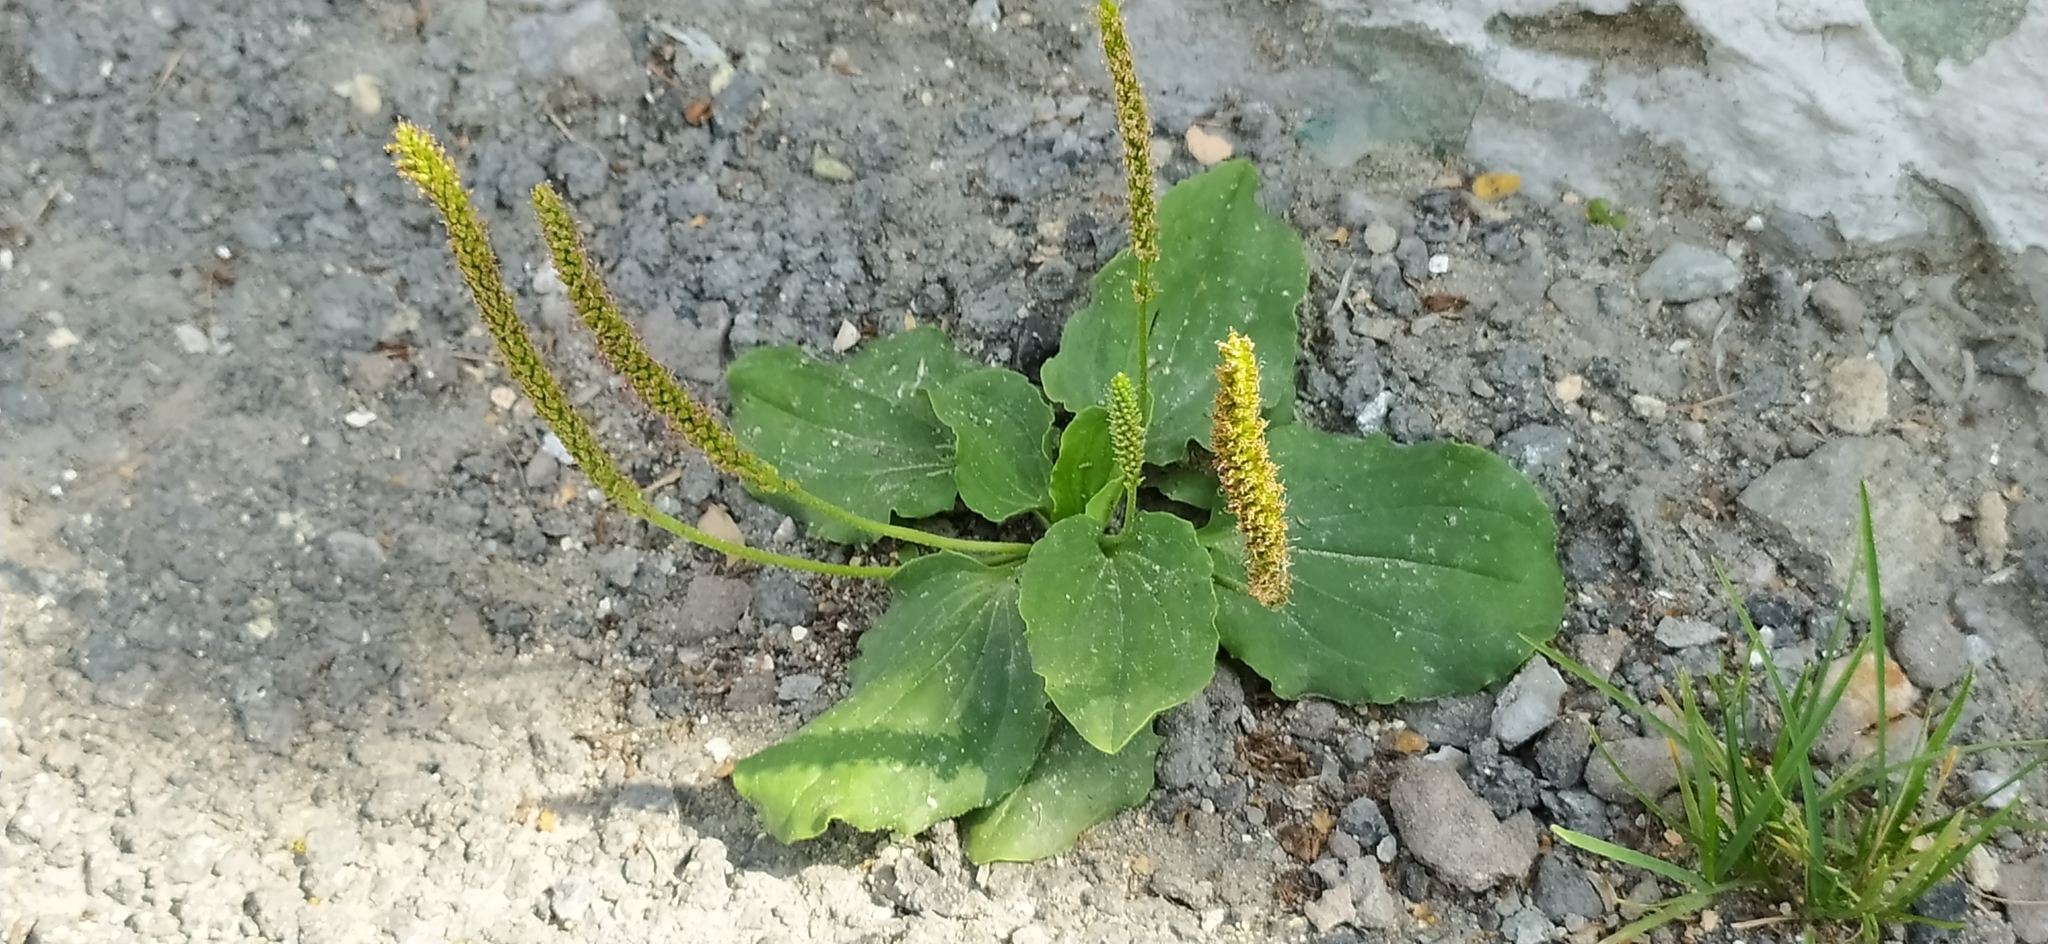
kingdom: Plantae
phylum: Tracheophyta
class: Magnoliopsida
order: Lamiales
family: Plantaginaceae
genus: Plantago
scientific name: Plantago major
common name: Common plantain
